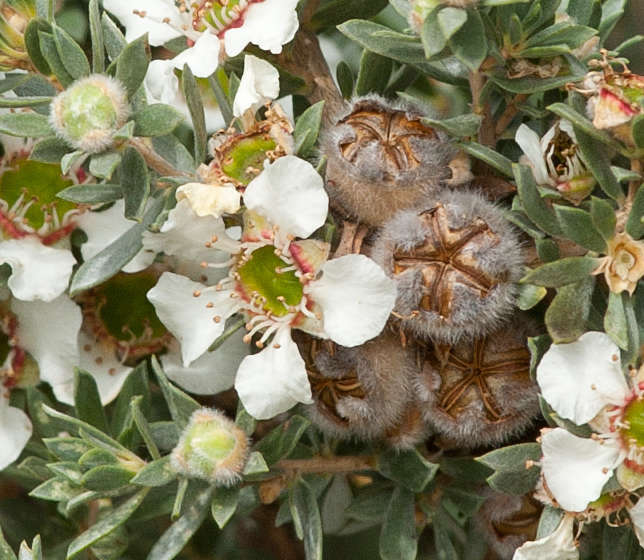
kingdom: Plantae
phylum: Tracheophyta
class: Magnoliopsida
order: Myrtales
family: Myrtaceae
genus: Leptospermum
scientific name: Leptospermum lanigerum
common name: Woolly tea-tree
